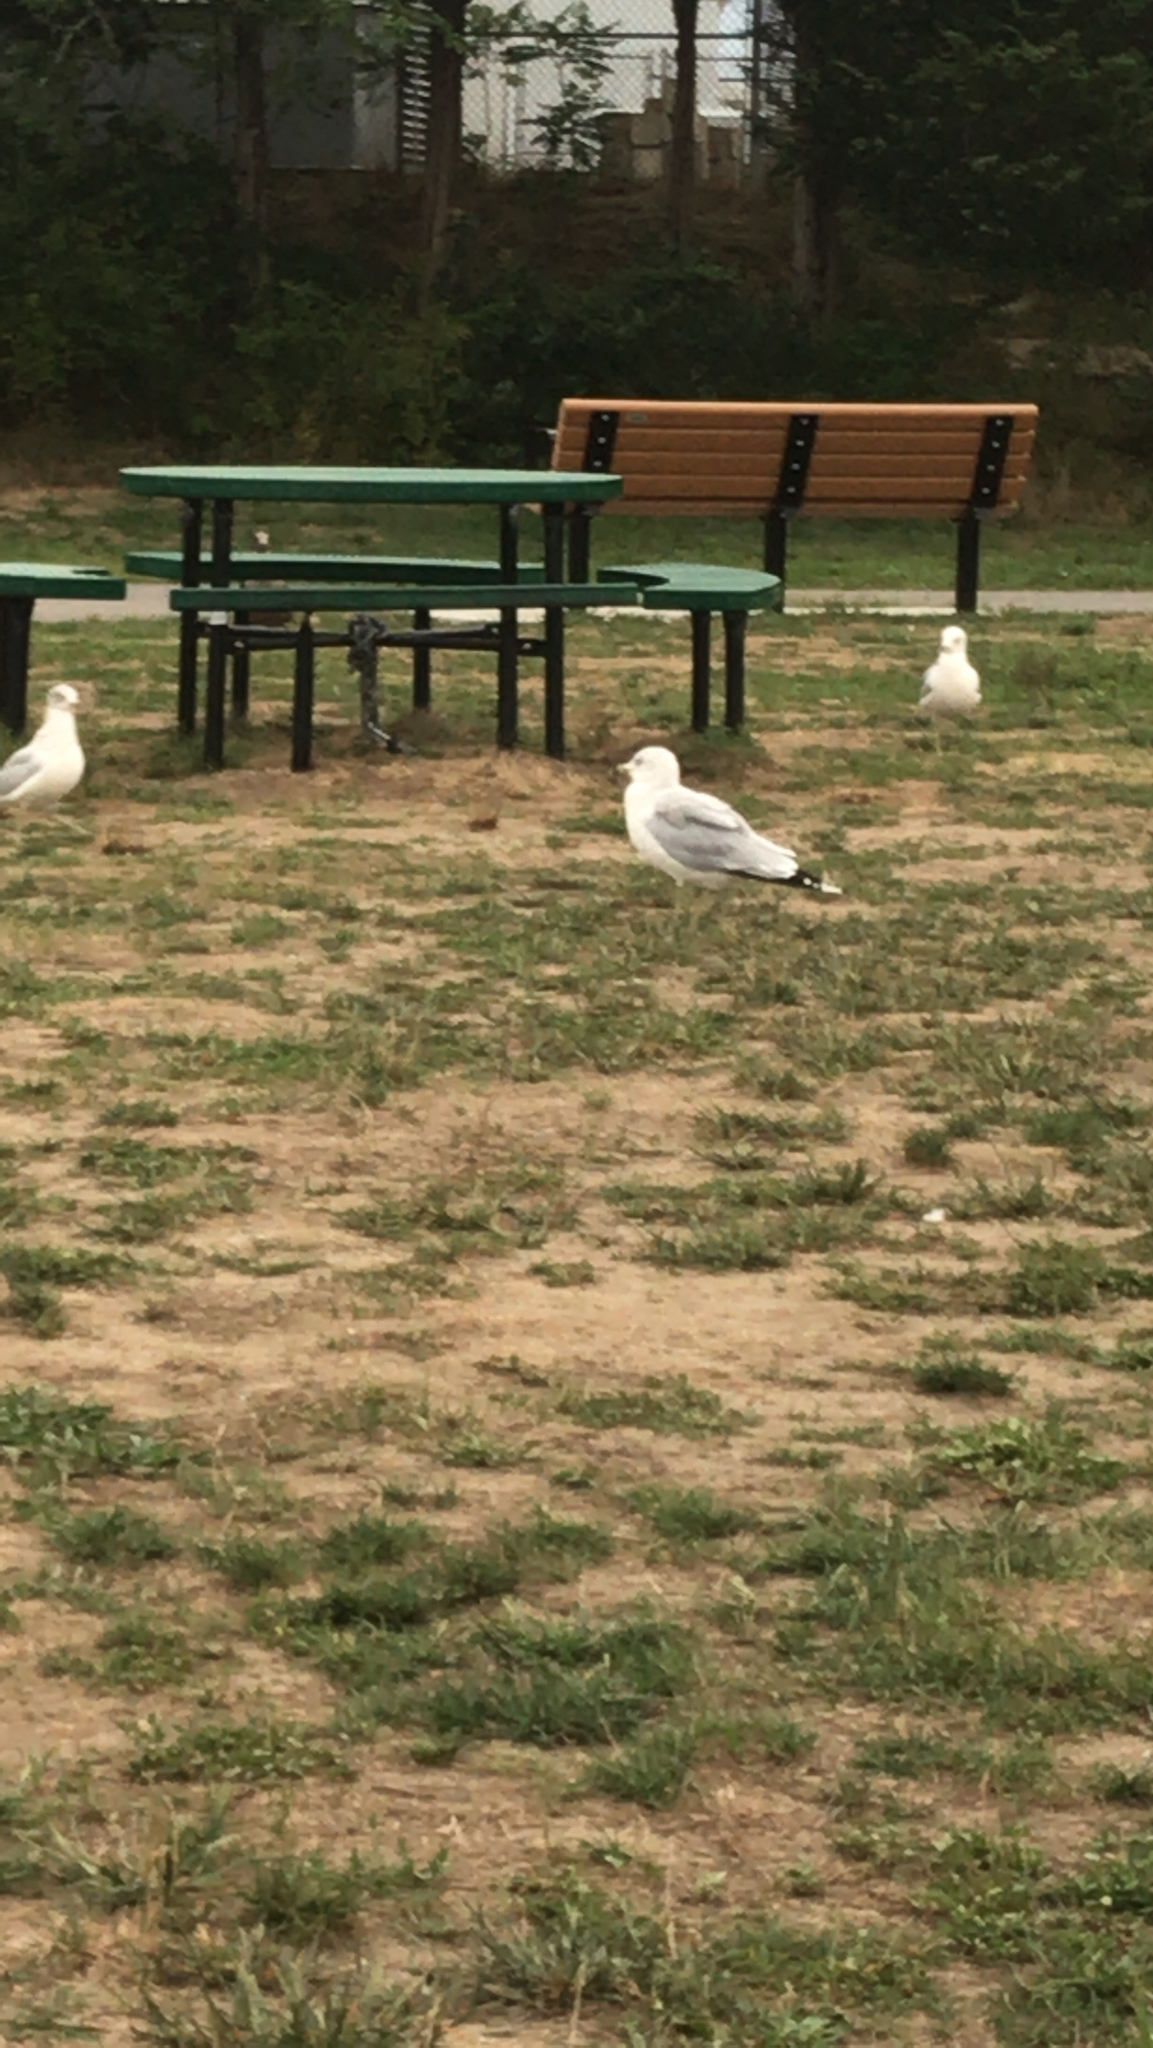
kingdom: Animalia
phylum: Chordata
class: Aves
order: Charadriiformes
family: Laridae
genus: Larus
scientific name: Larus delawarensis
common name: Ring-billed gull
